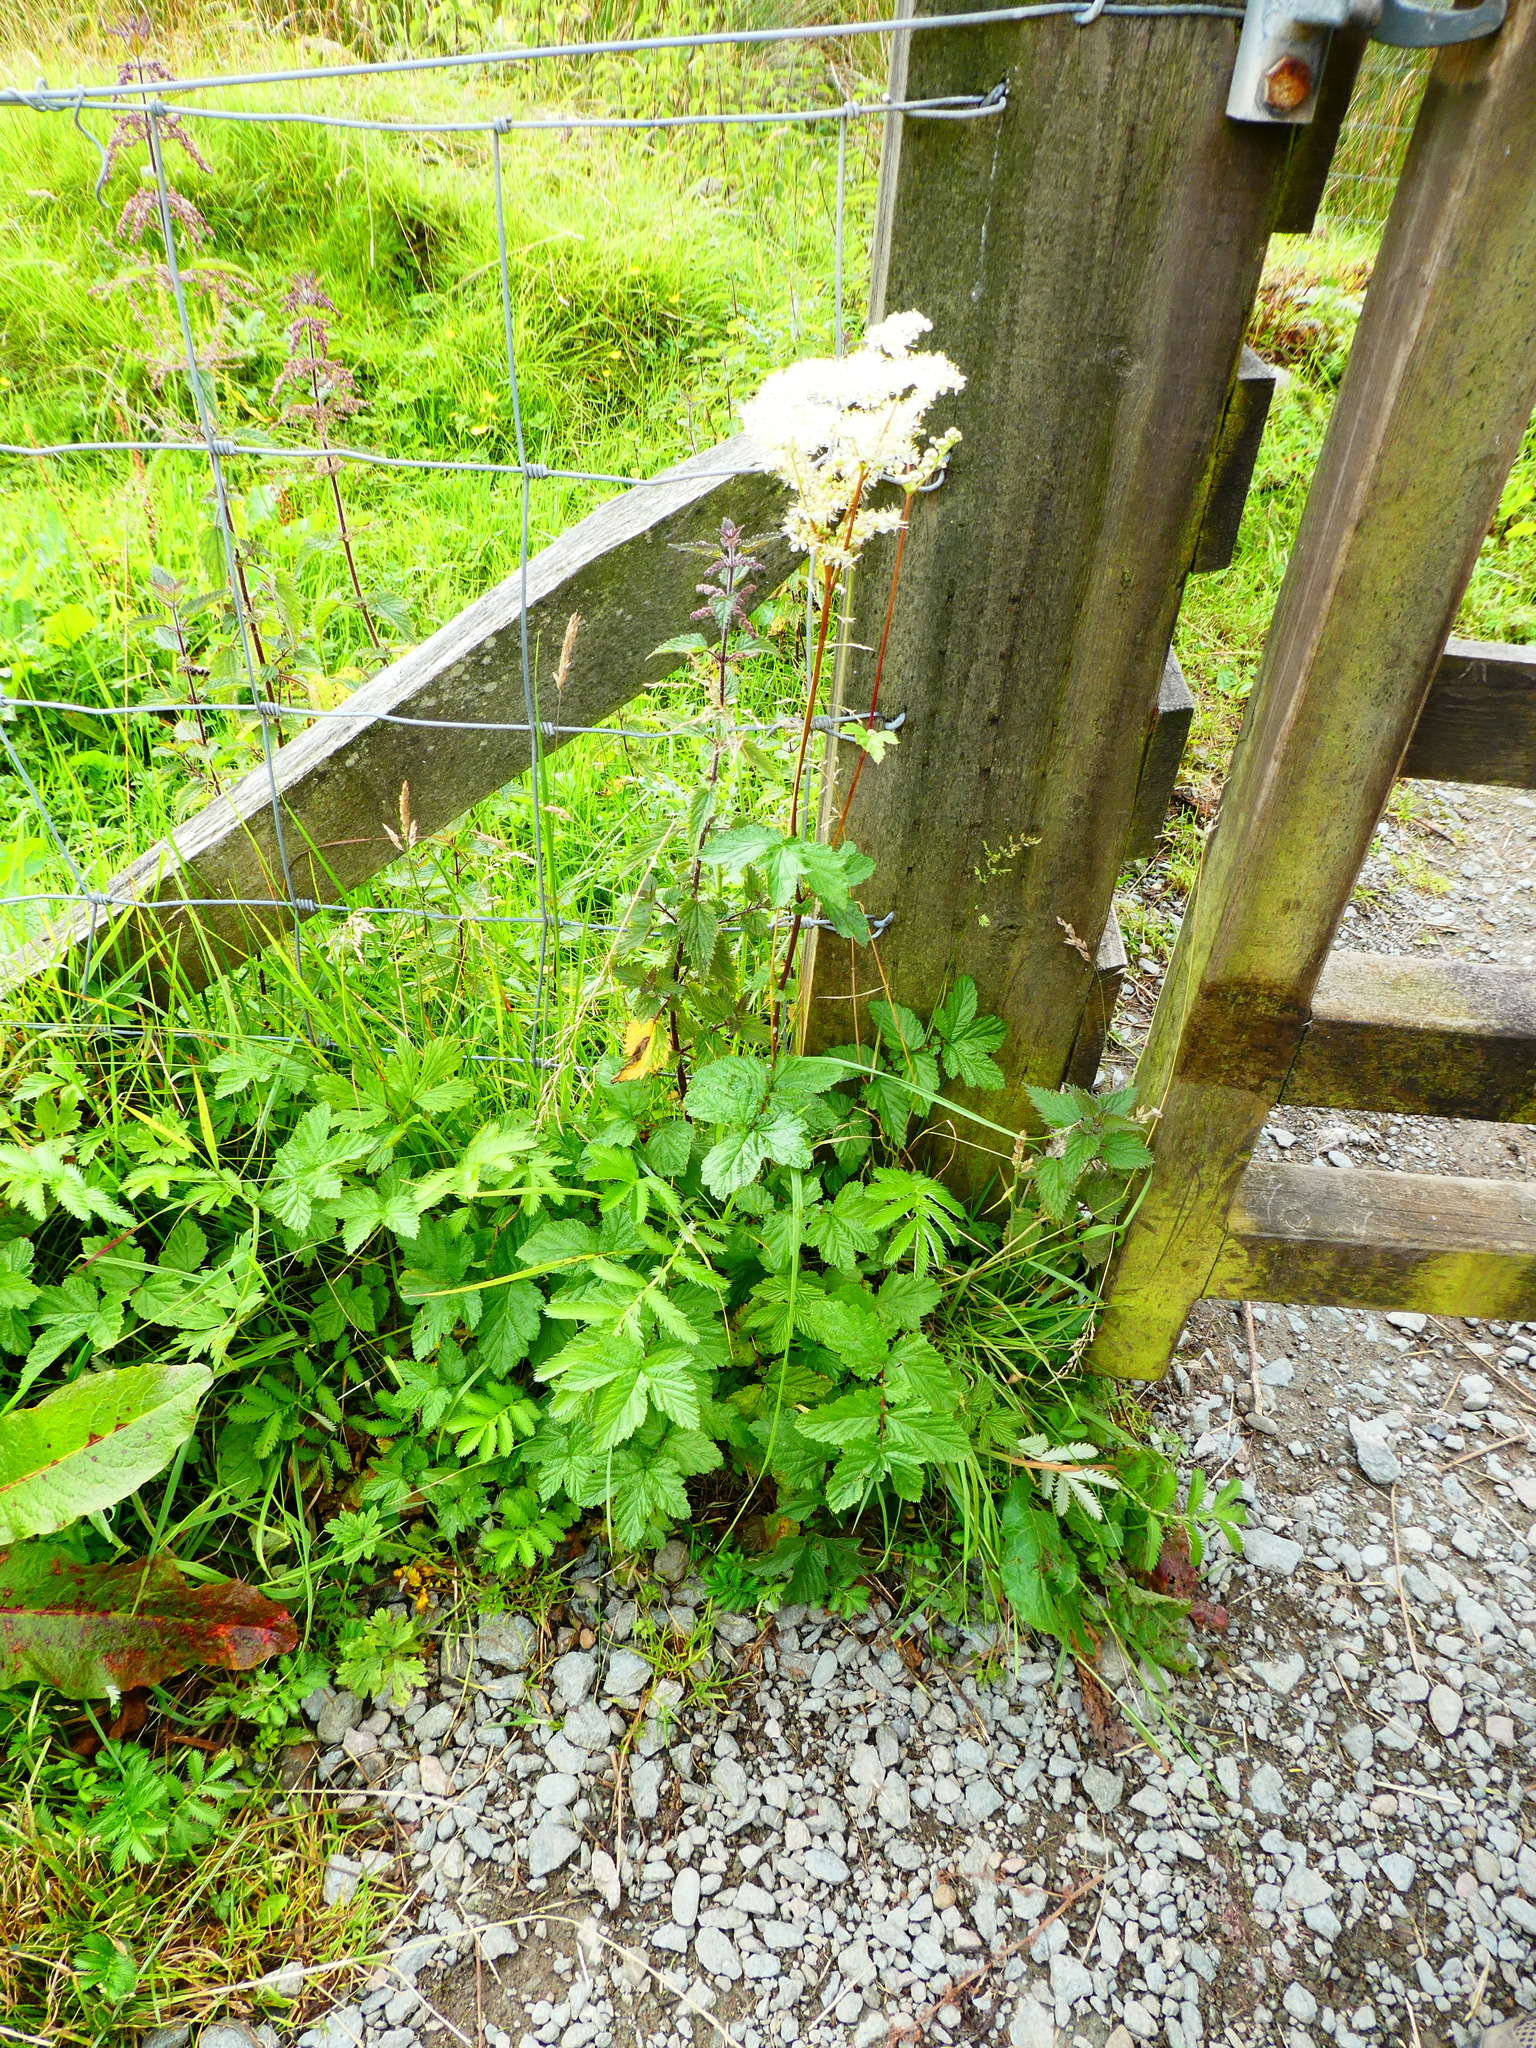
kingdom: Plantae
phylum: Tracheophyta
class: Magnoliopsida
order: Rosales
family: Rosaceae
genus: Filipendula
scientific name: Filipendula ulmaria
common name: Meadowsweet
